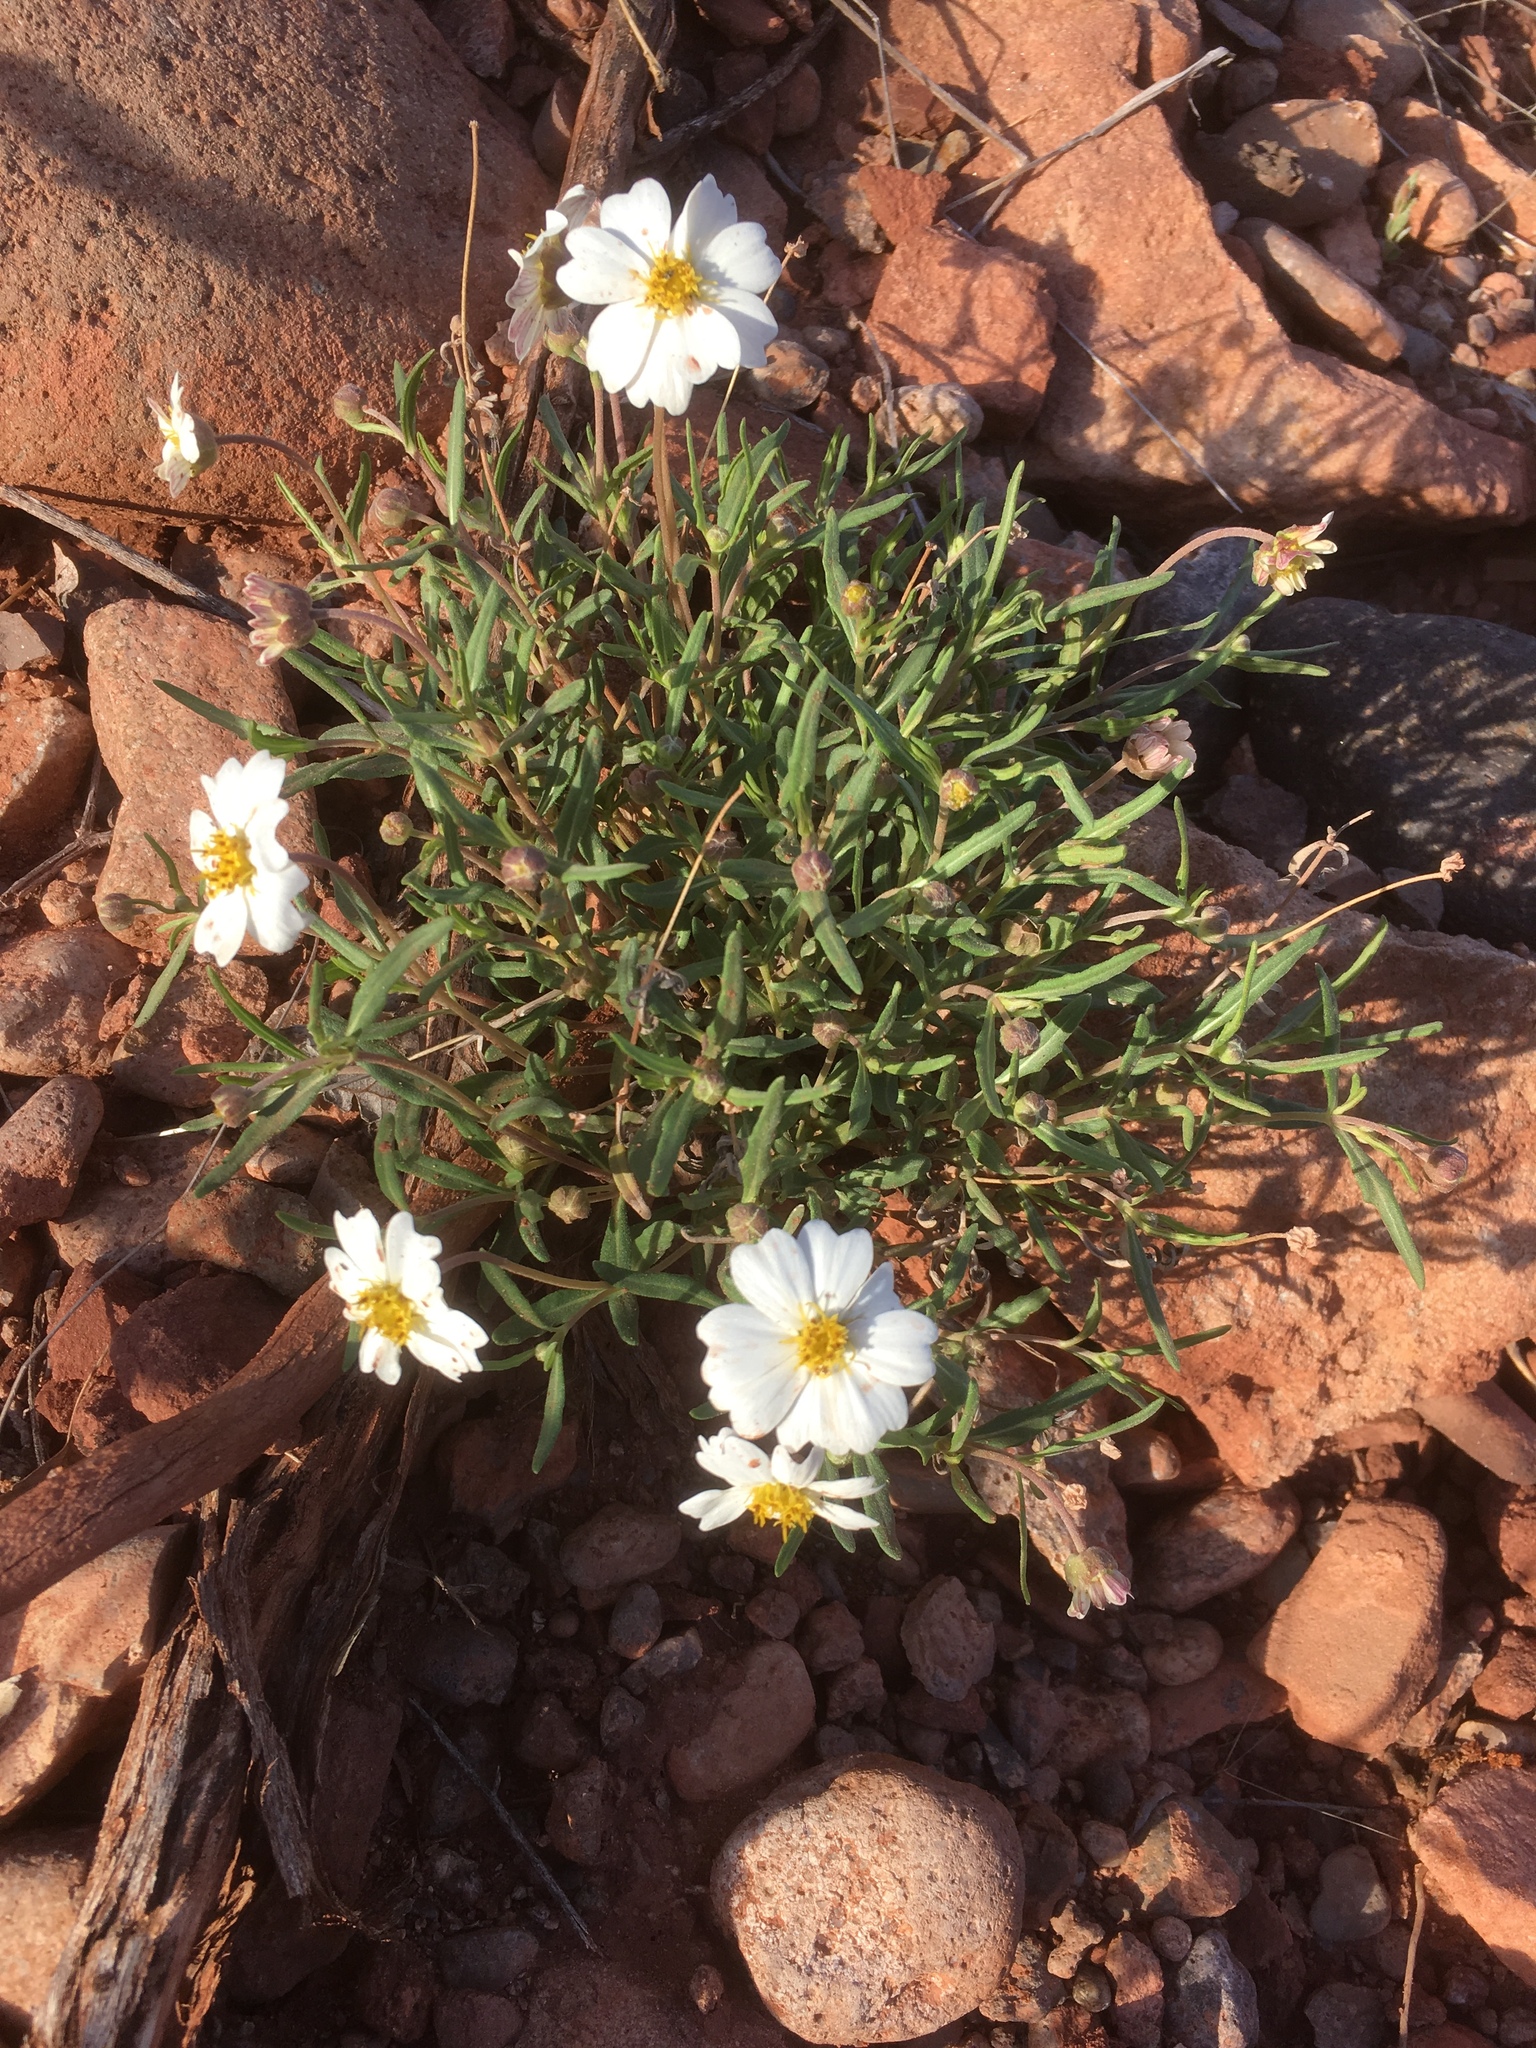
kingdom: Plantae
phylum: Tracheophyta
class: Magnoliopsida
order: Asterales
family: Asteraceae
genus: Melampodium
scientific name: Melampodium leucanthum
